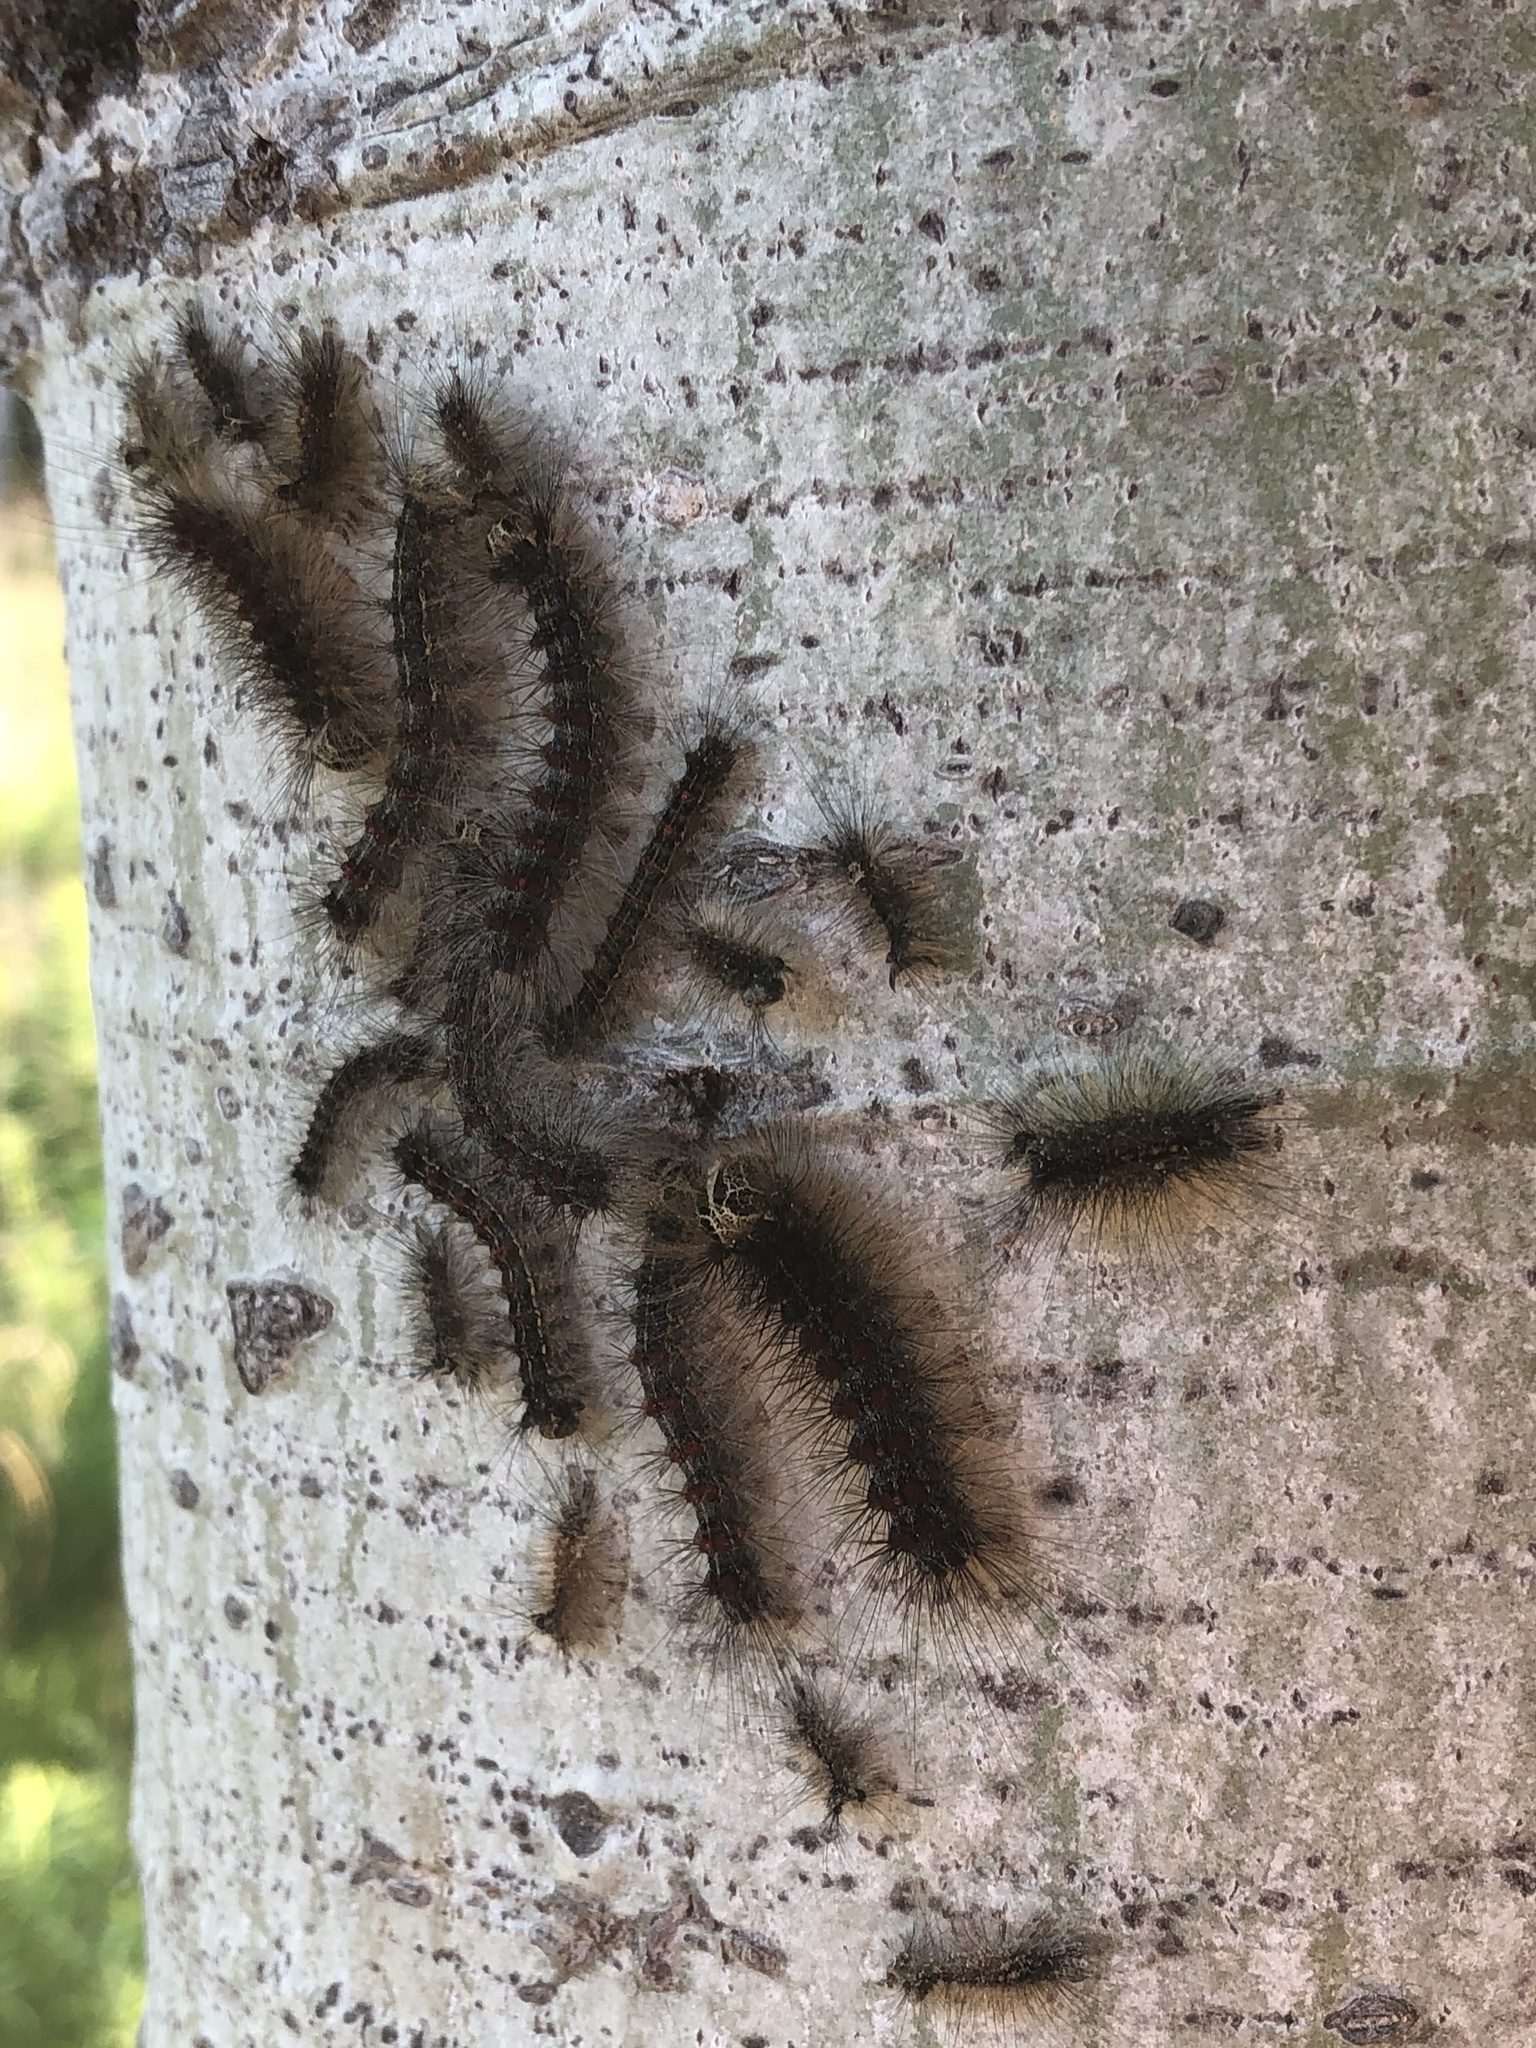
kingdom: Animalia
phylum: Arthropoda
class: Insecta
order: Lepidoptera
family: Erebidae
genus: Lymantria
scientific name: Lymantria dispar
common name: Gypsy moth
